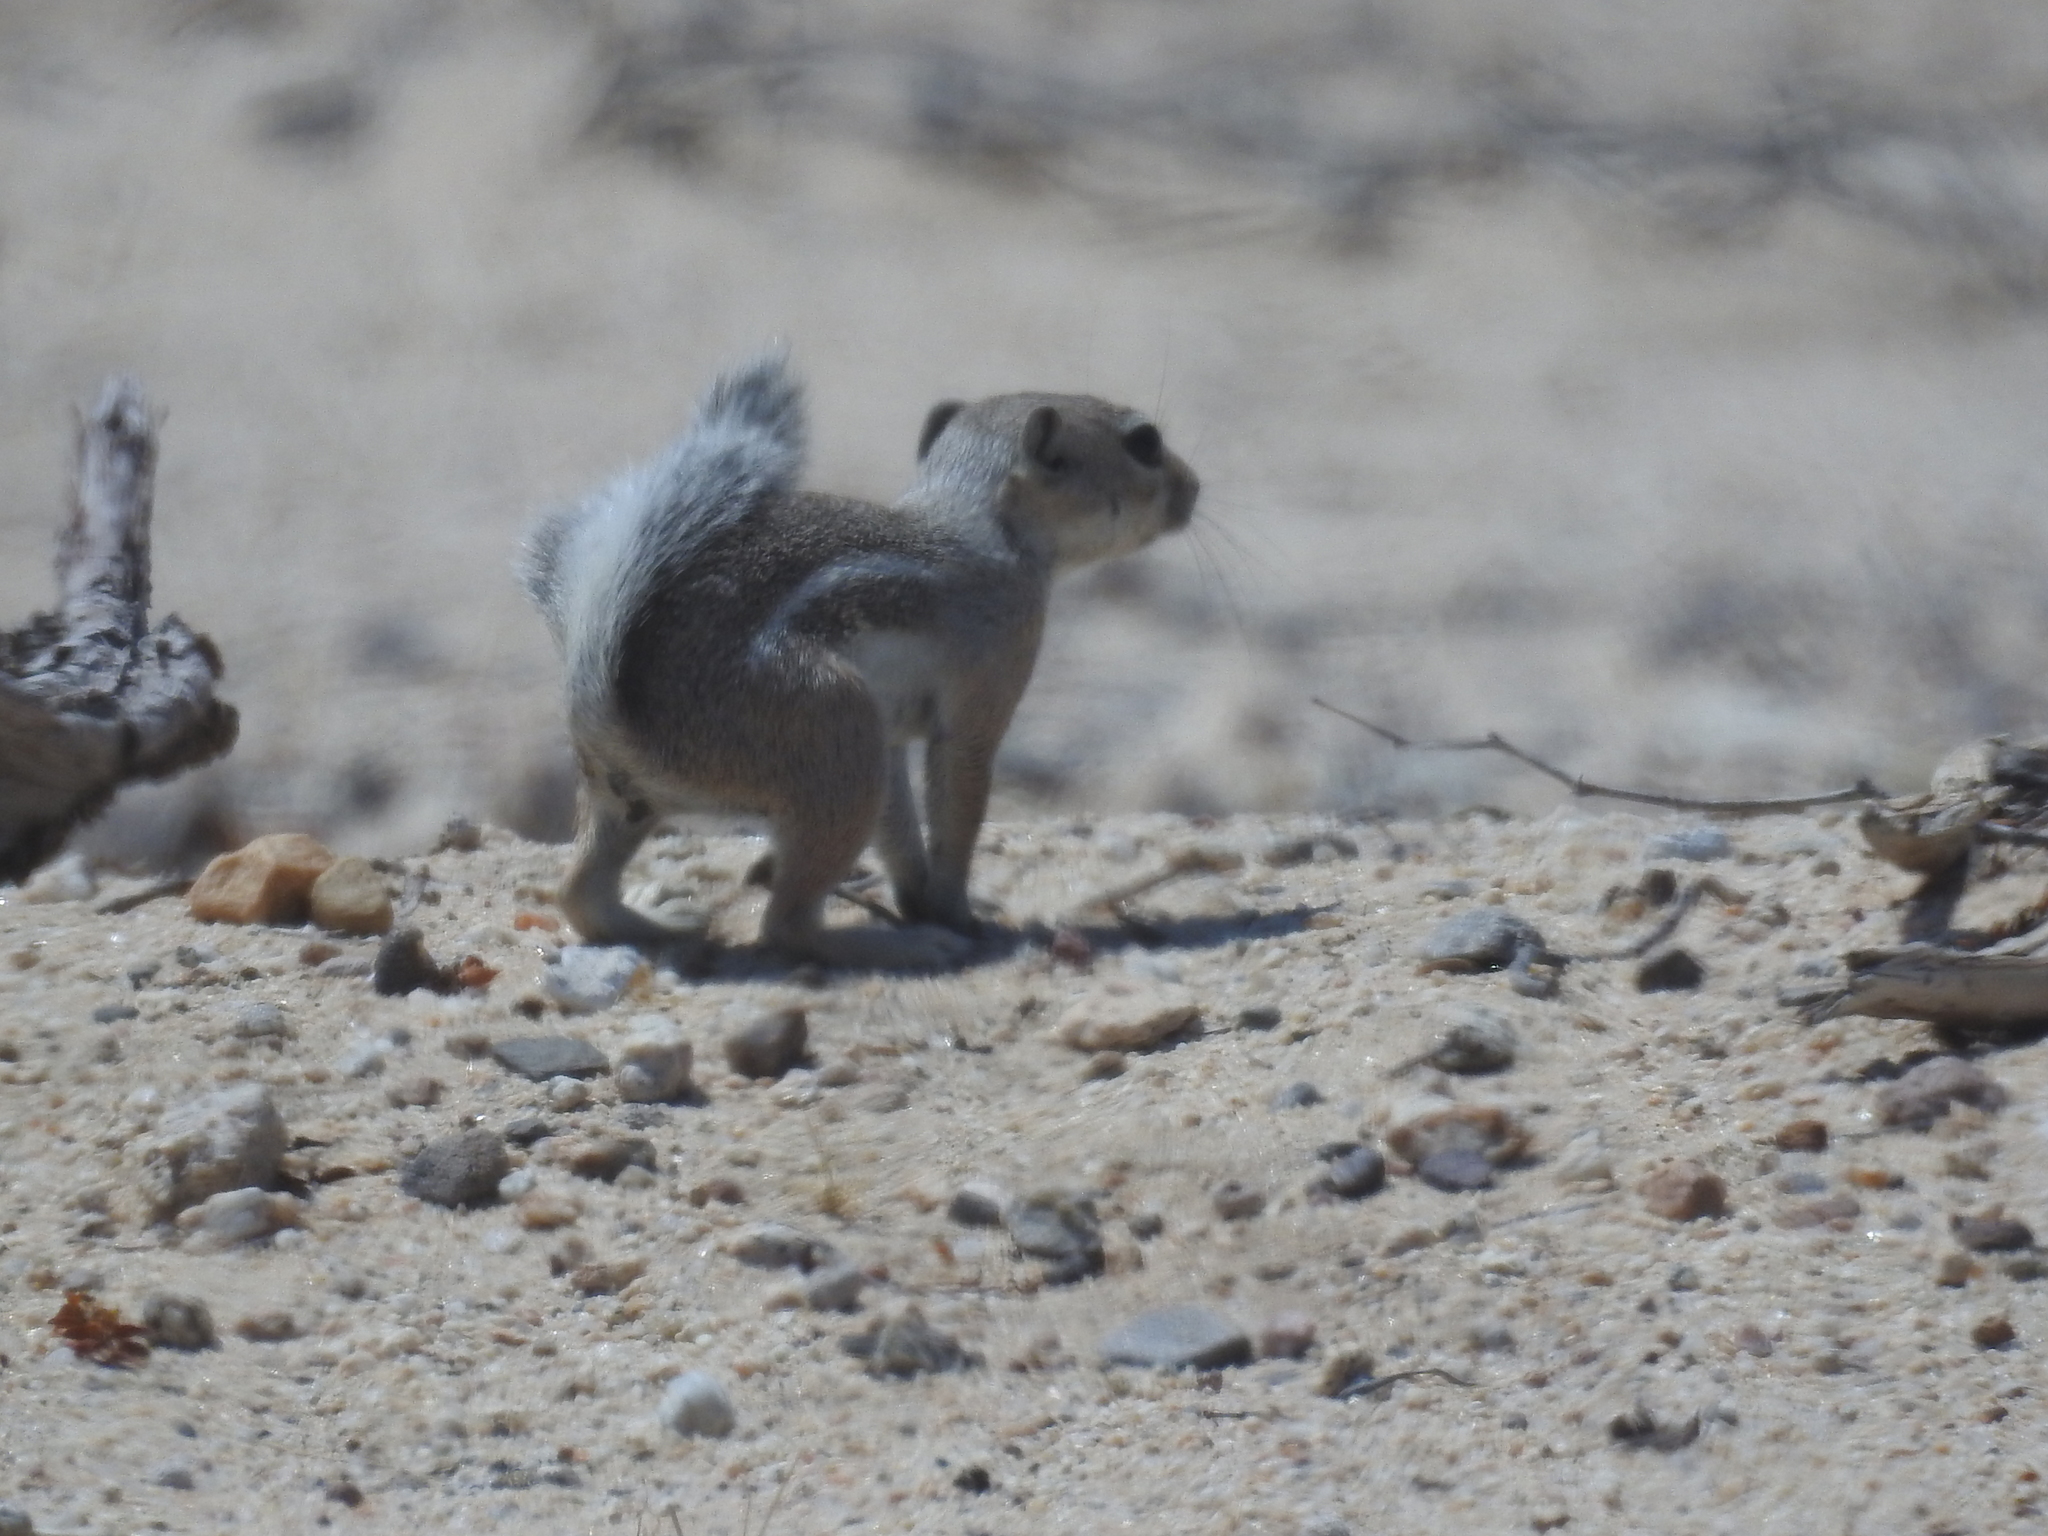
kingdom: Animalia
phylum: Chordata
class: Mammalia
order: Rodentia
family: Sciuridae
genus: Ammospermophilus
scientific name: Ammospermophilus leucurus
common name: White-tailed antelope squirrel
